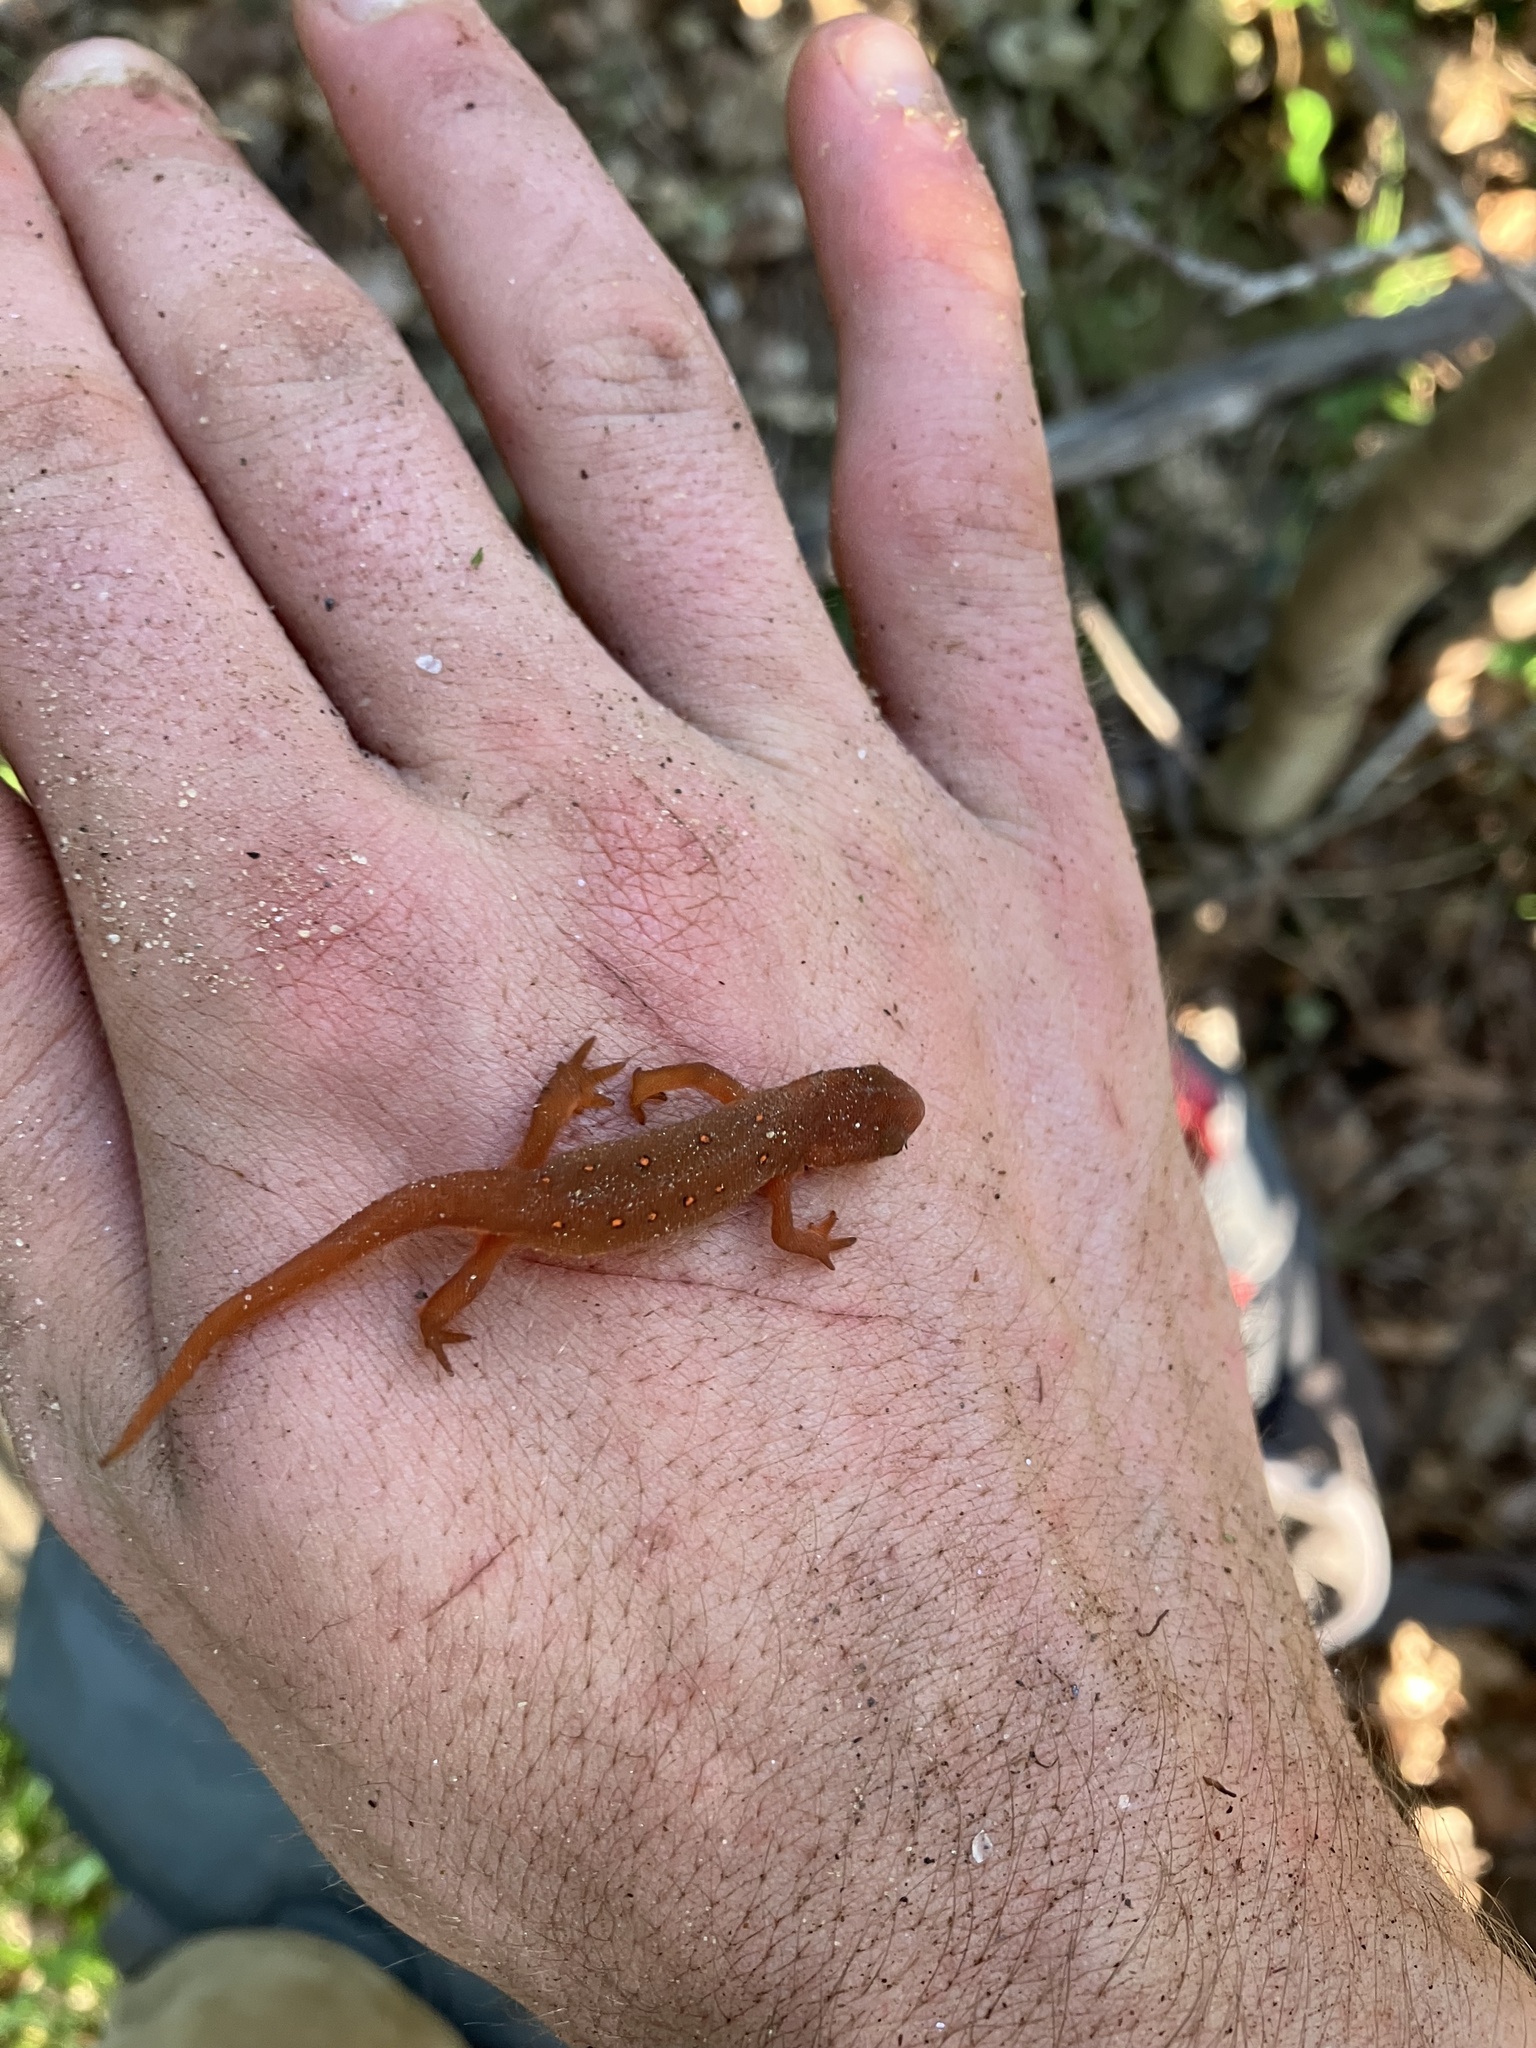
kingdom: Animalia
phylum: Chordata
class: Amphibia
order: Caudata
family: Salamandridae
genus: Notophthalmus
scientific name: Notophthalmus viridescens
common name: Eastern newt
